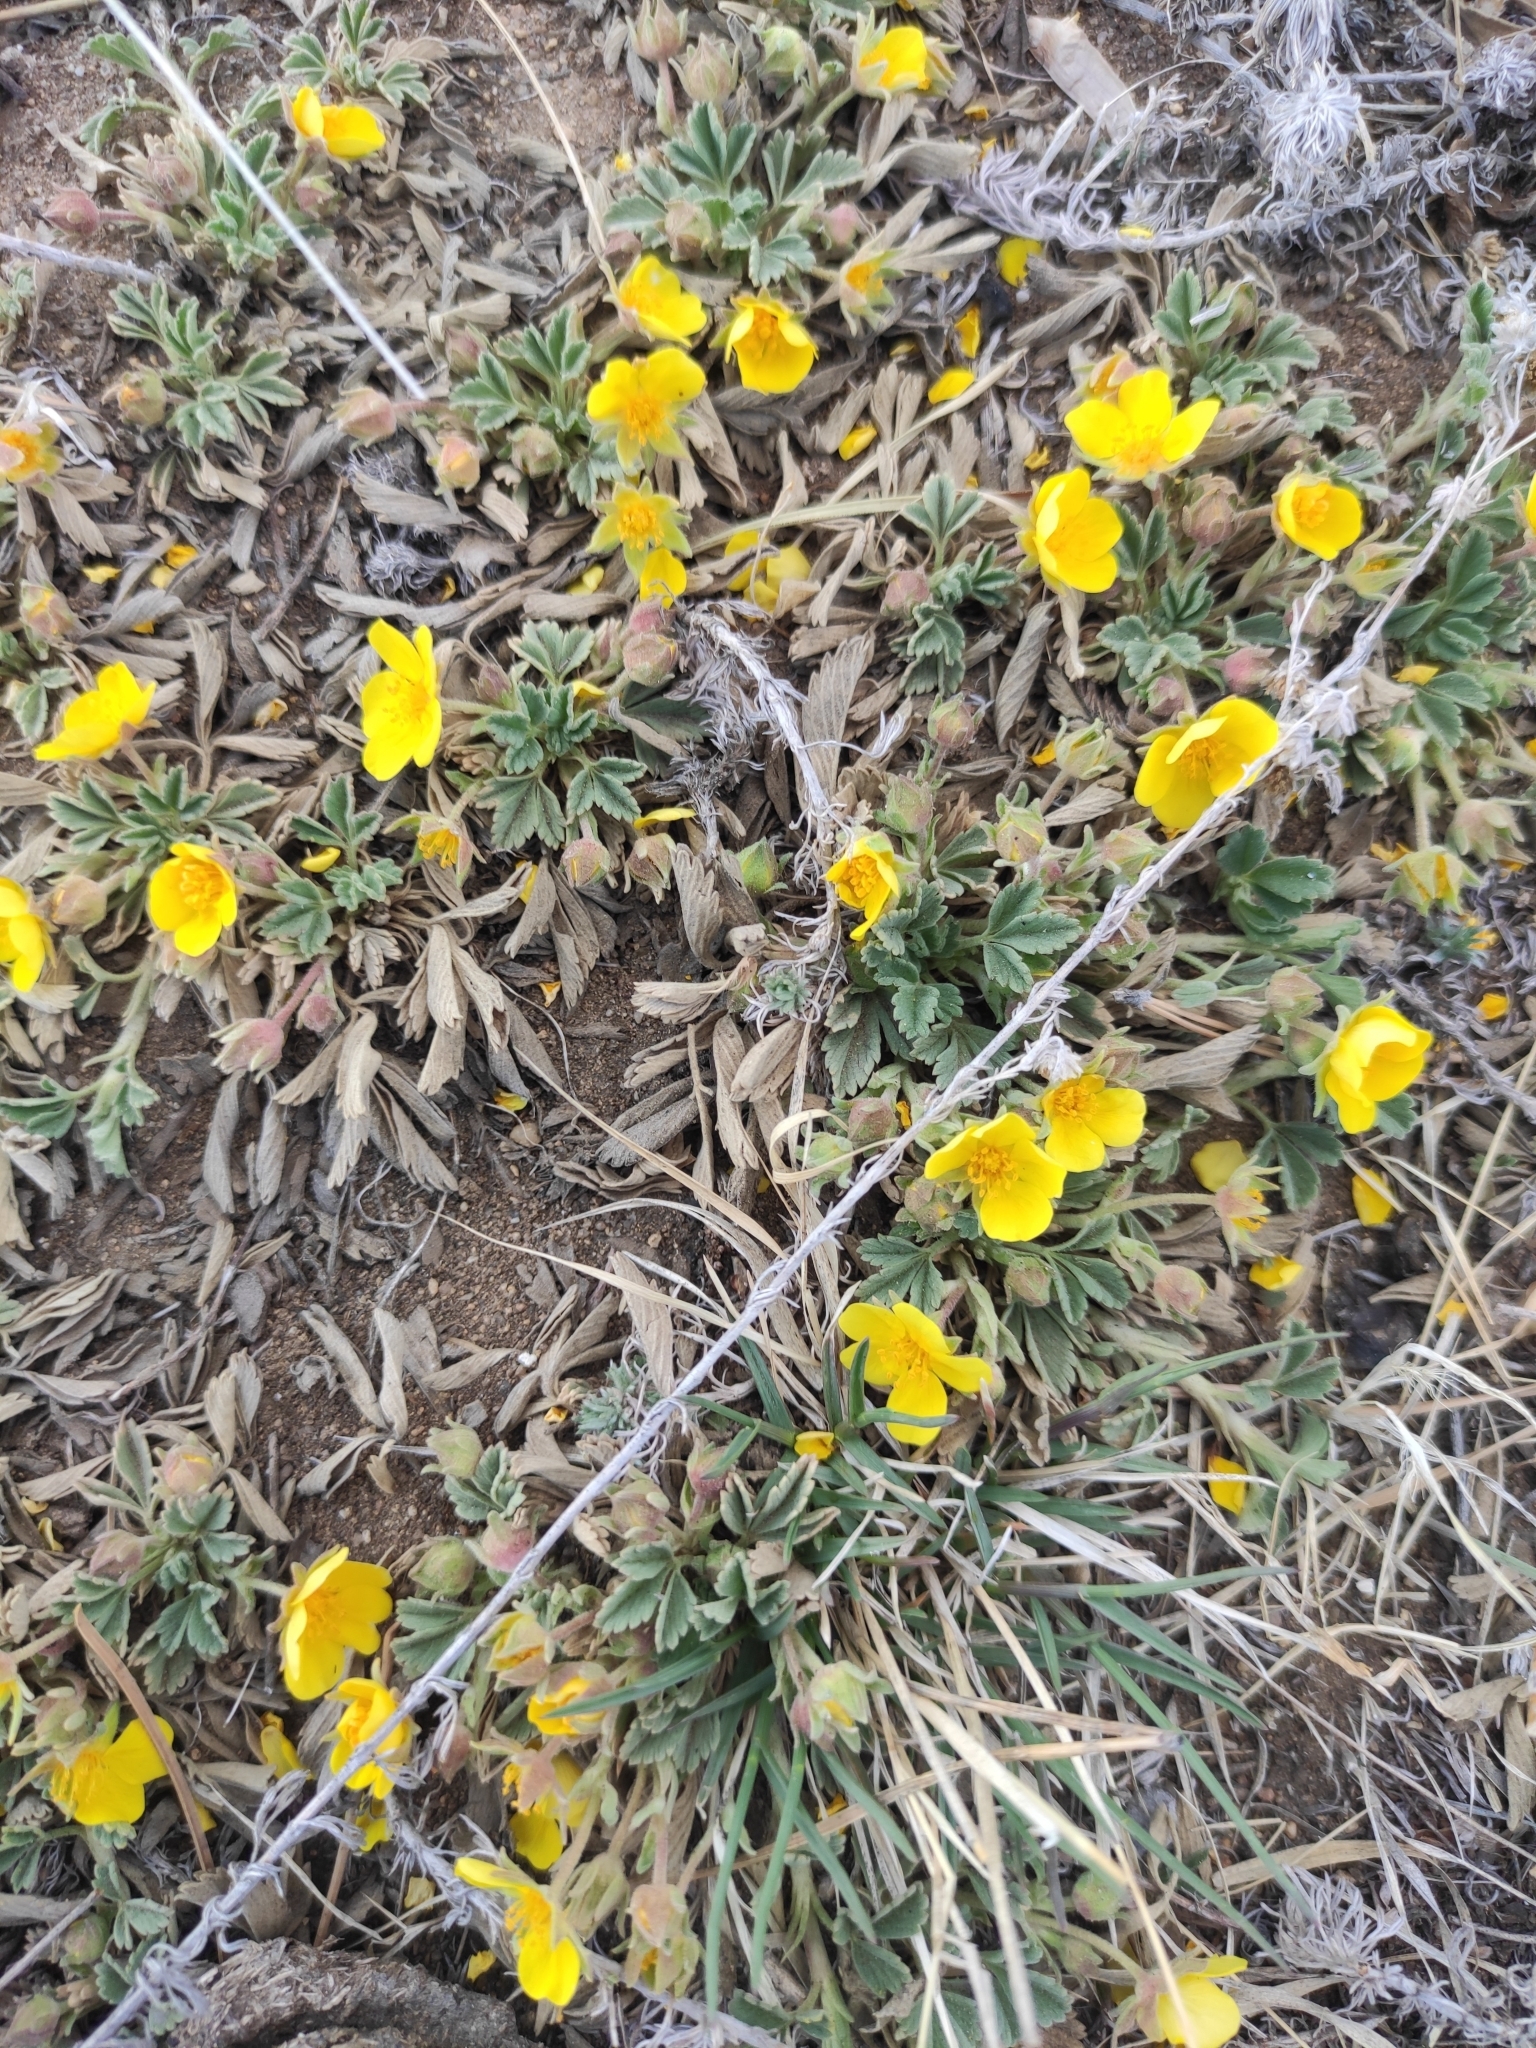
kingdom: Plantae
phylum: Tracheophyta
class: Magnoliopsida
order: Rosales
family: Rosaceae
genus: Potentilla
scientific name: Potentilla acaulis
